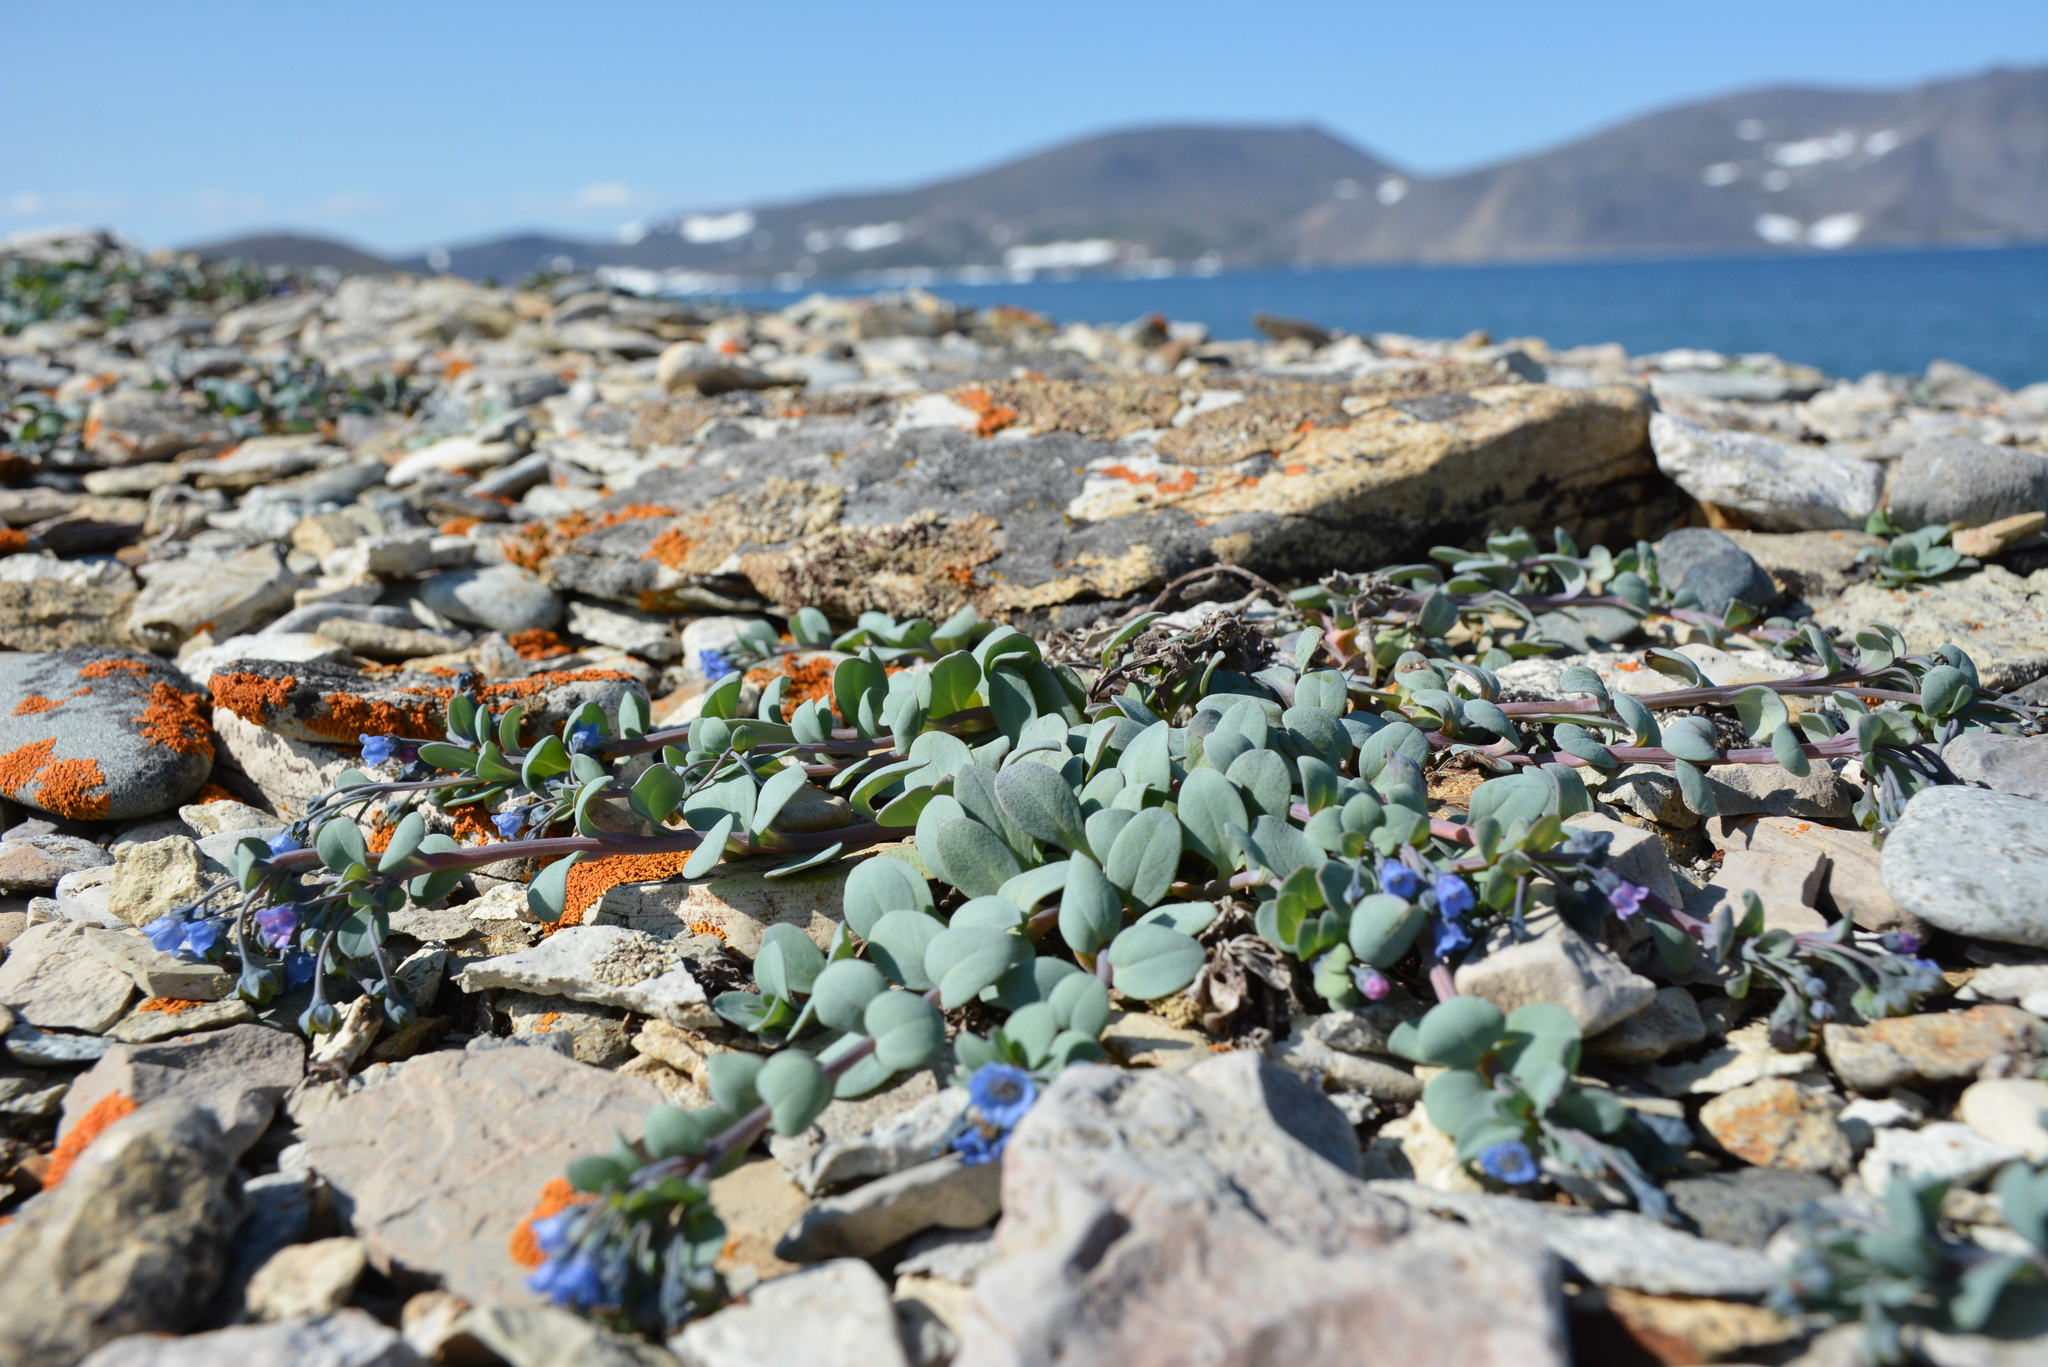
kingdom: Plantae
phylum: Tracheophyta
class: Magnoliopsida
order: Boraginales
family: Boraginaceae
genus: Mertensia
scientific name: Mertensia maritima
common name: Oysterplant
